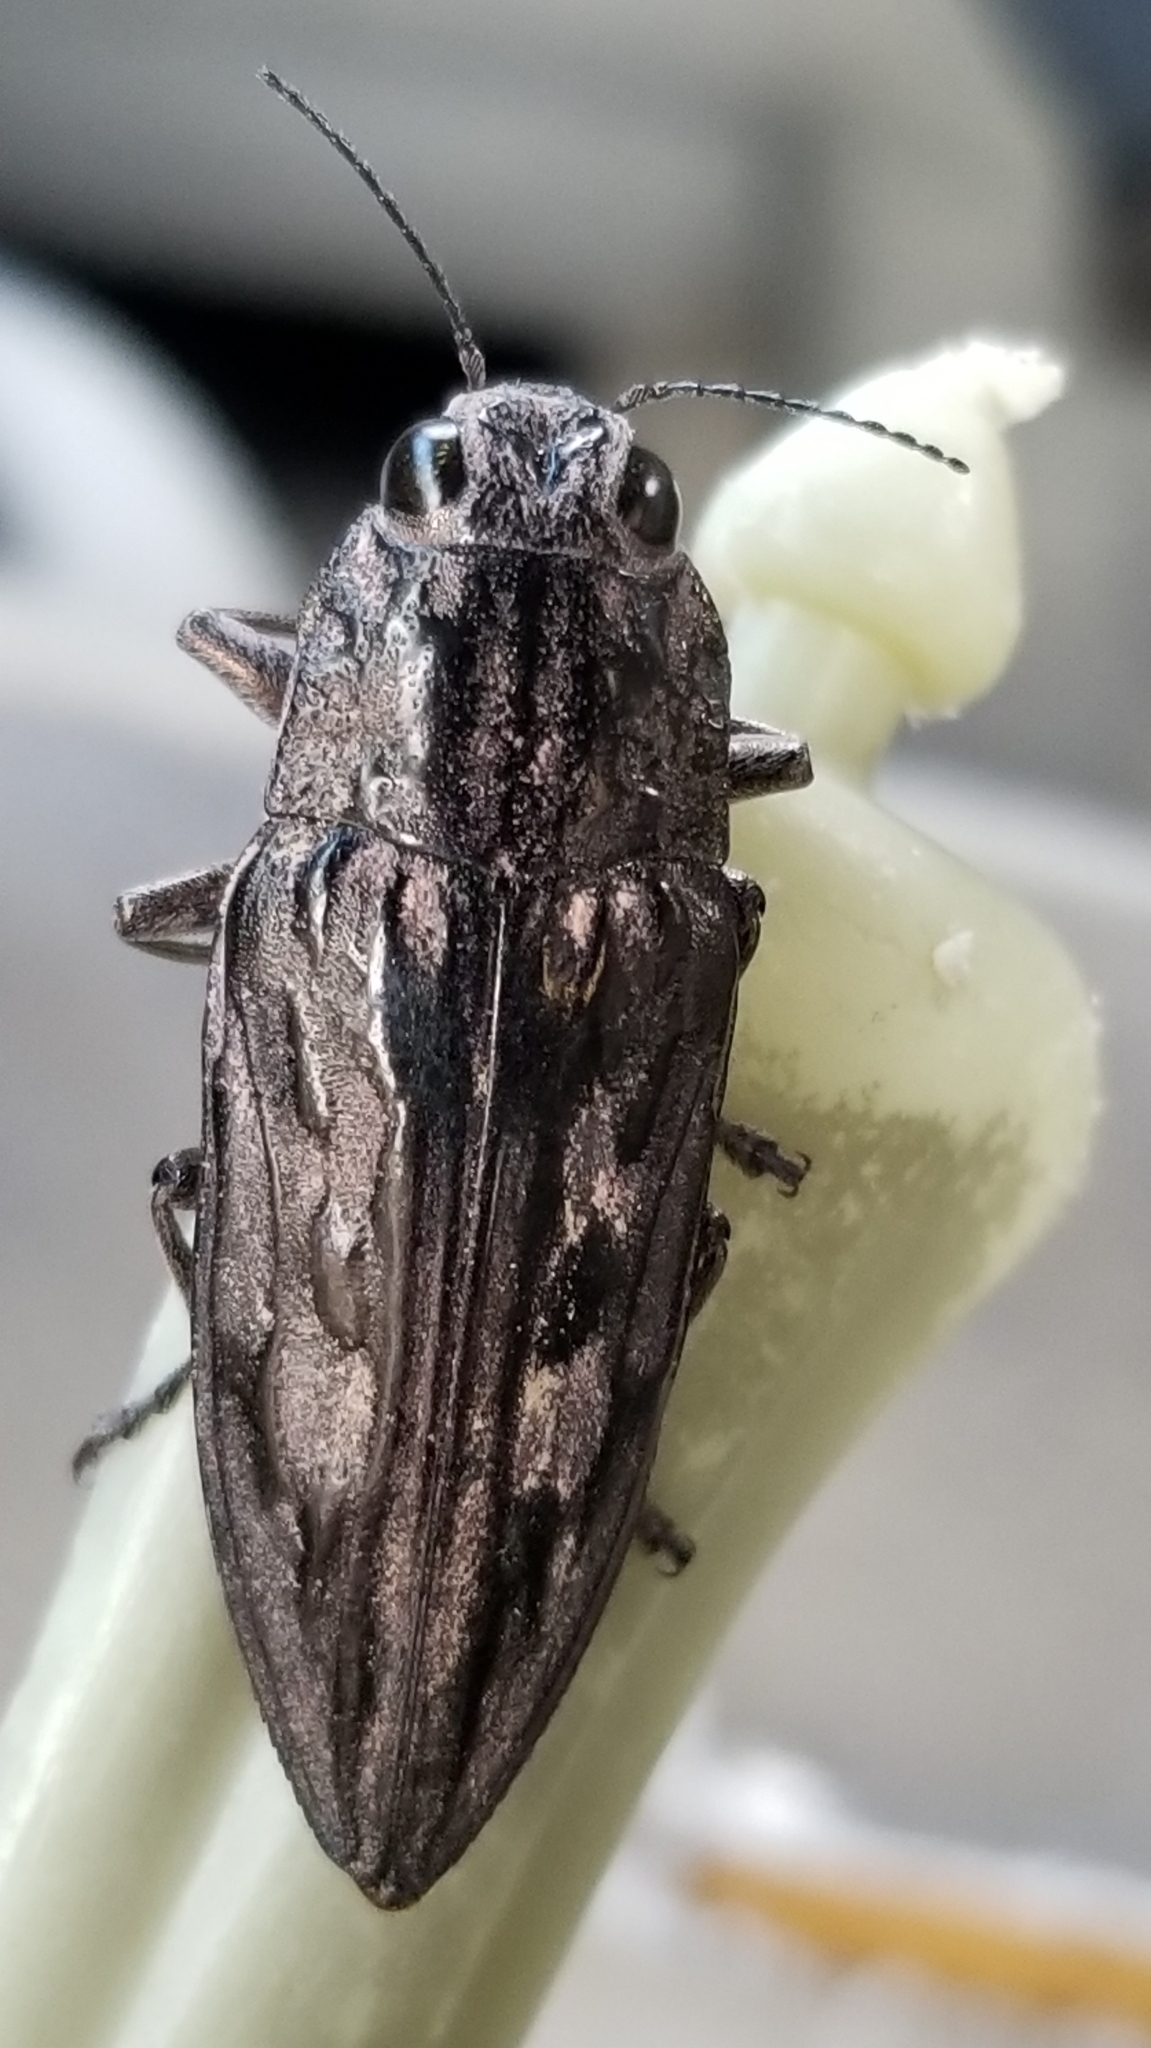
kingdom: Animalia
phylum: Arthropoda
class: Insecta
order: Coleoptera
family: Buprestidae
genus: Chalcophora
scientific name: Chalcophora virginiensis
